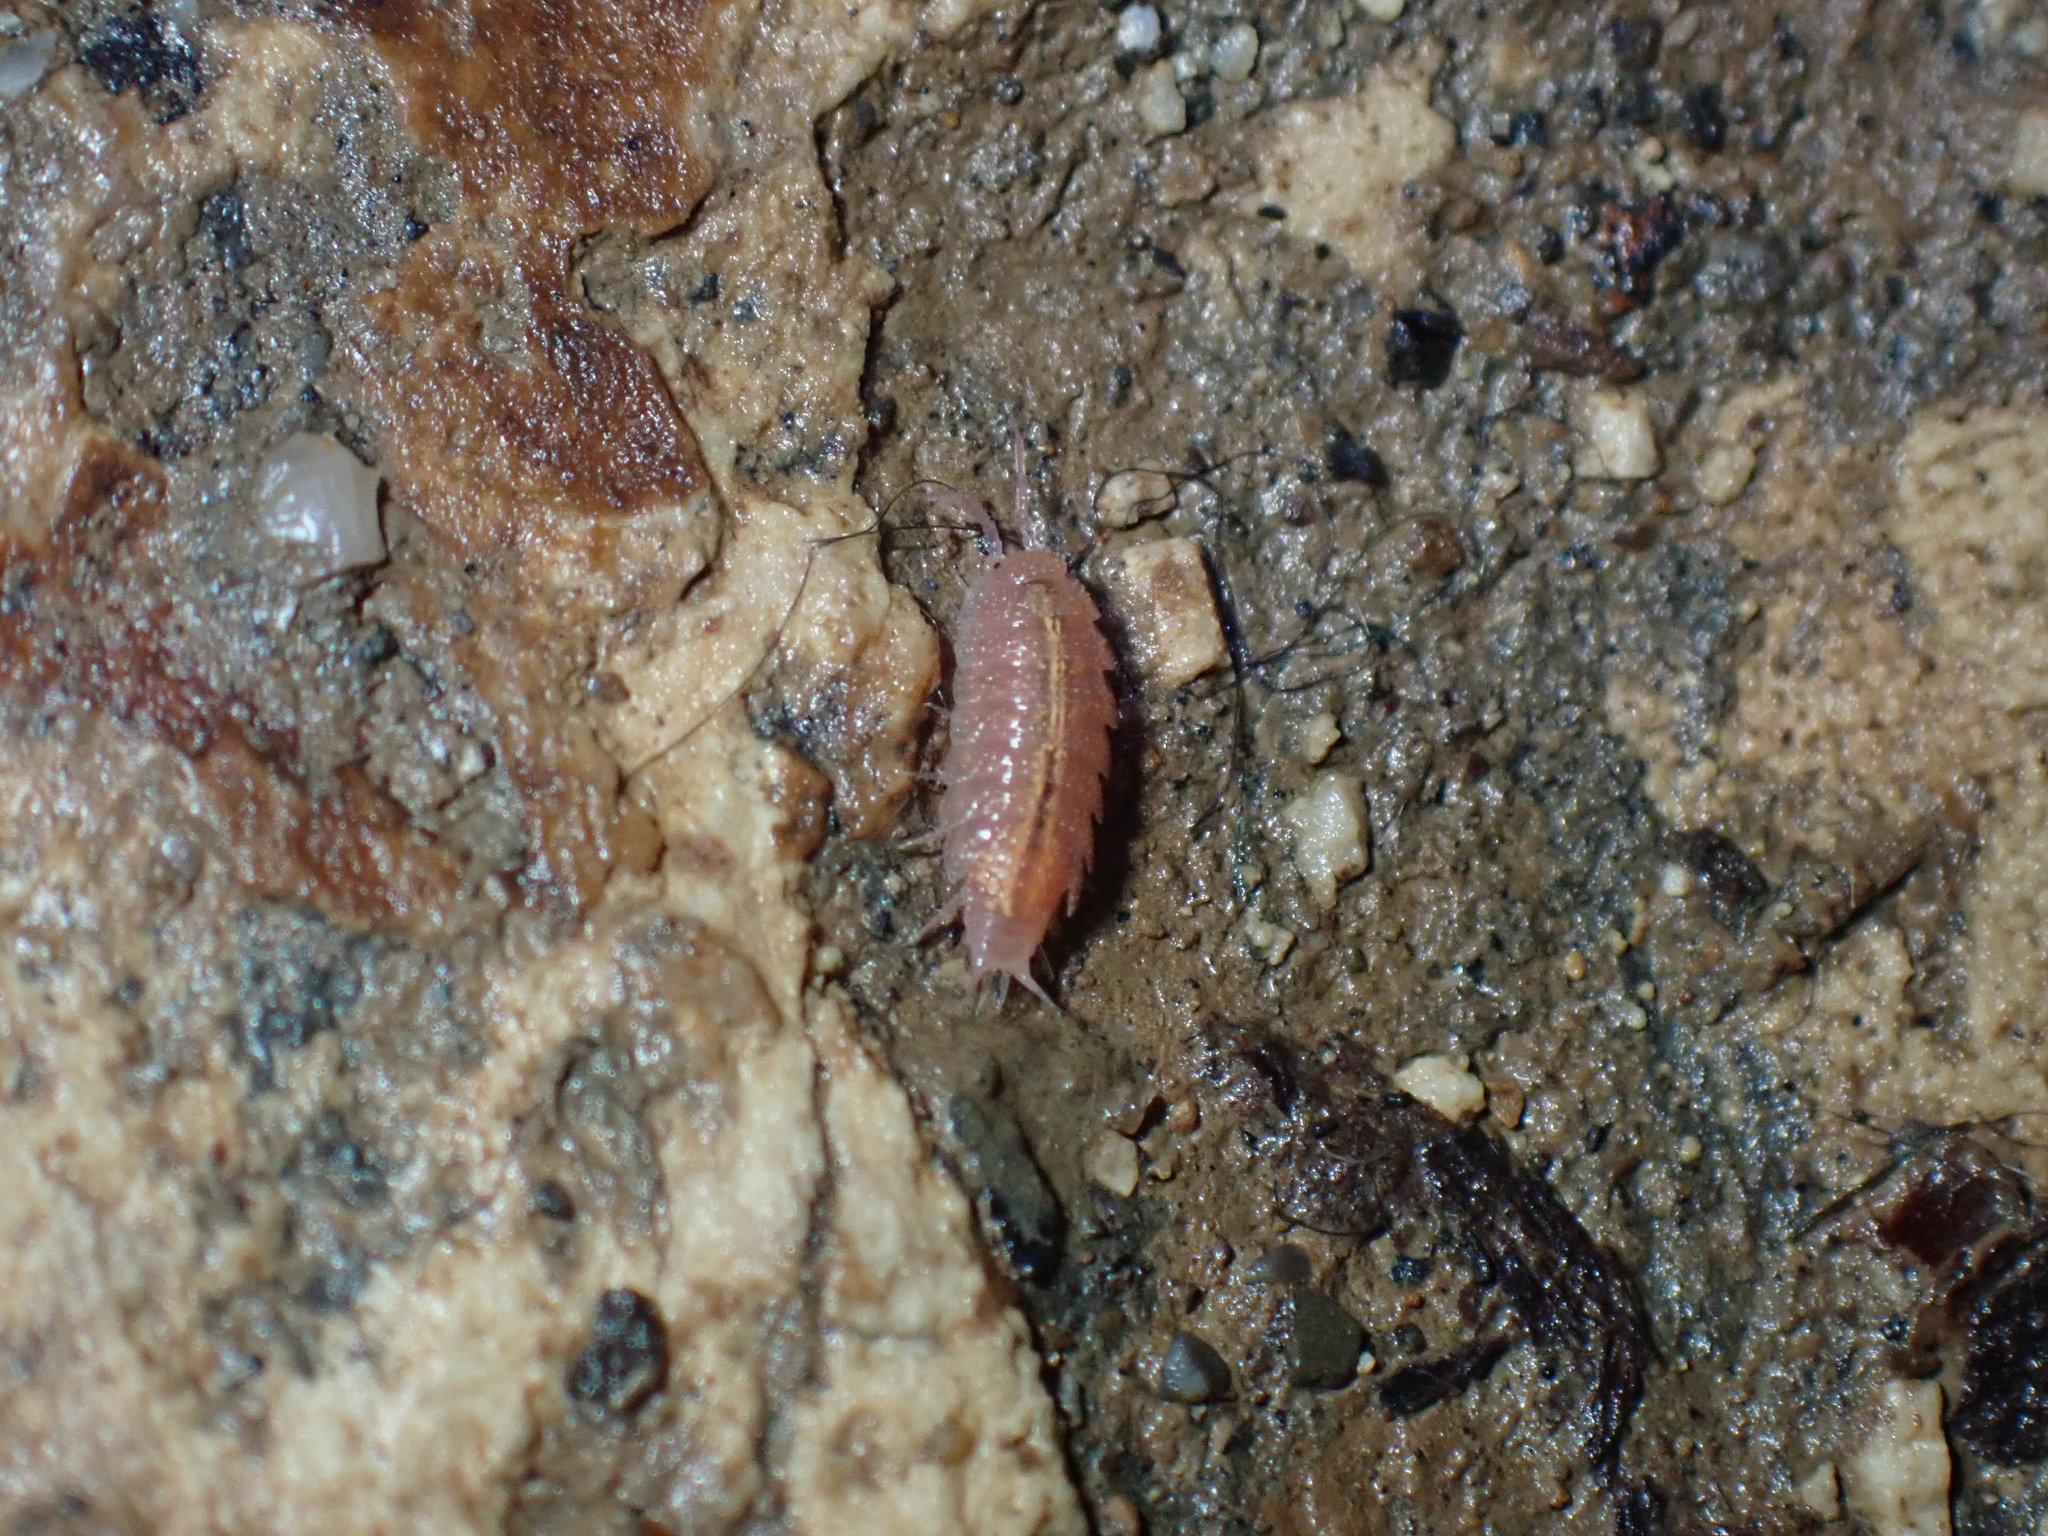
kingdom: Animalia
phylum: Arthropoda
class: Malacostraca
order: Isopoda
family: Trichoniscidae
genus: Androniscus
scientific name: Androniscus dentiger
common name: Rosy woodlouse
